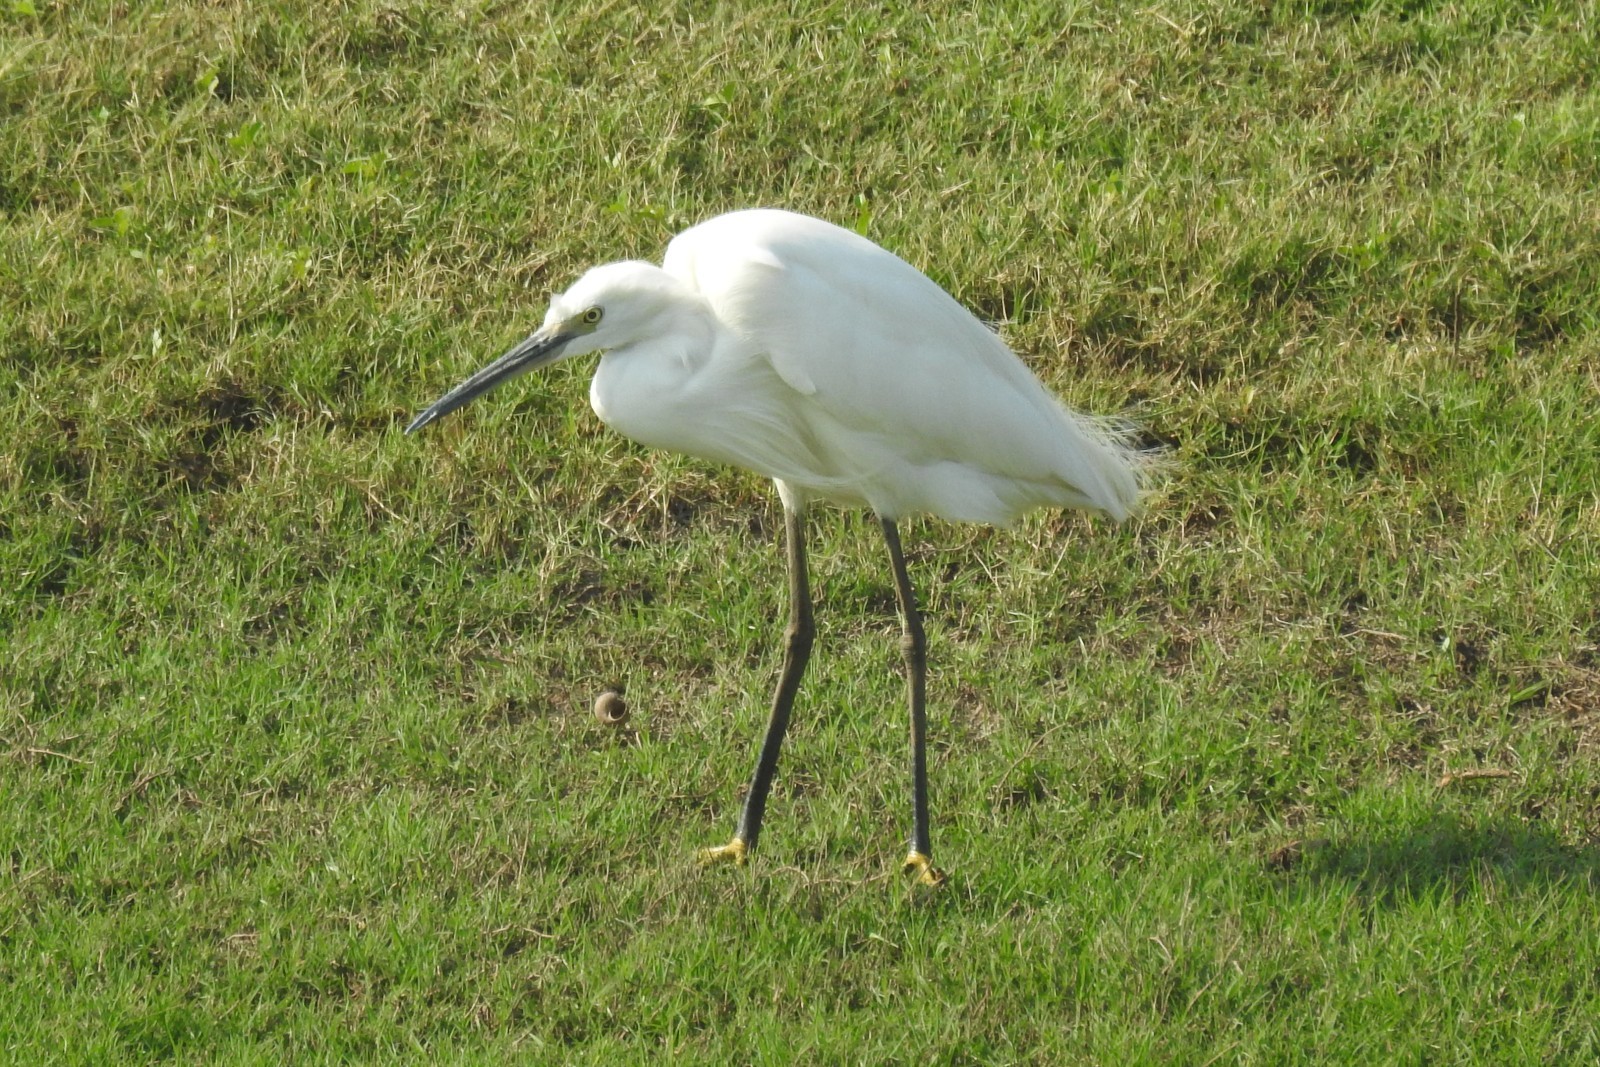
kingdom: Animalia
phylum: Chordata
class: Aves
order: Pelecaniformes
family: Ardeidae
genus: Egretta
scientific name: Egretta garzetta
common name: Little egret
